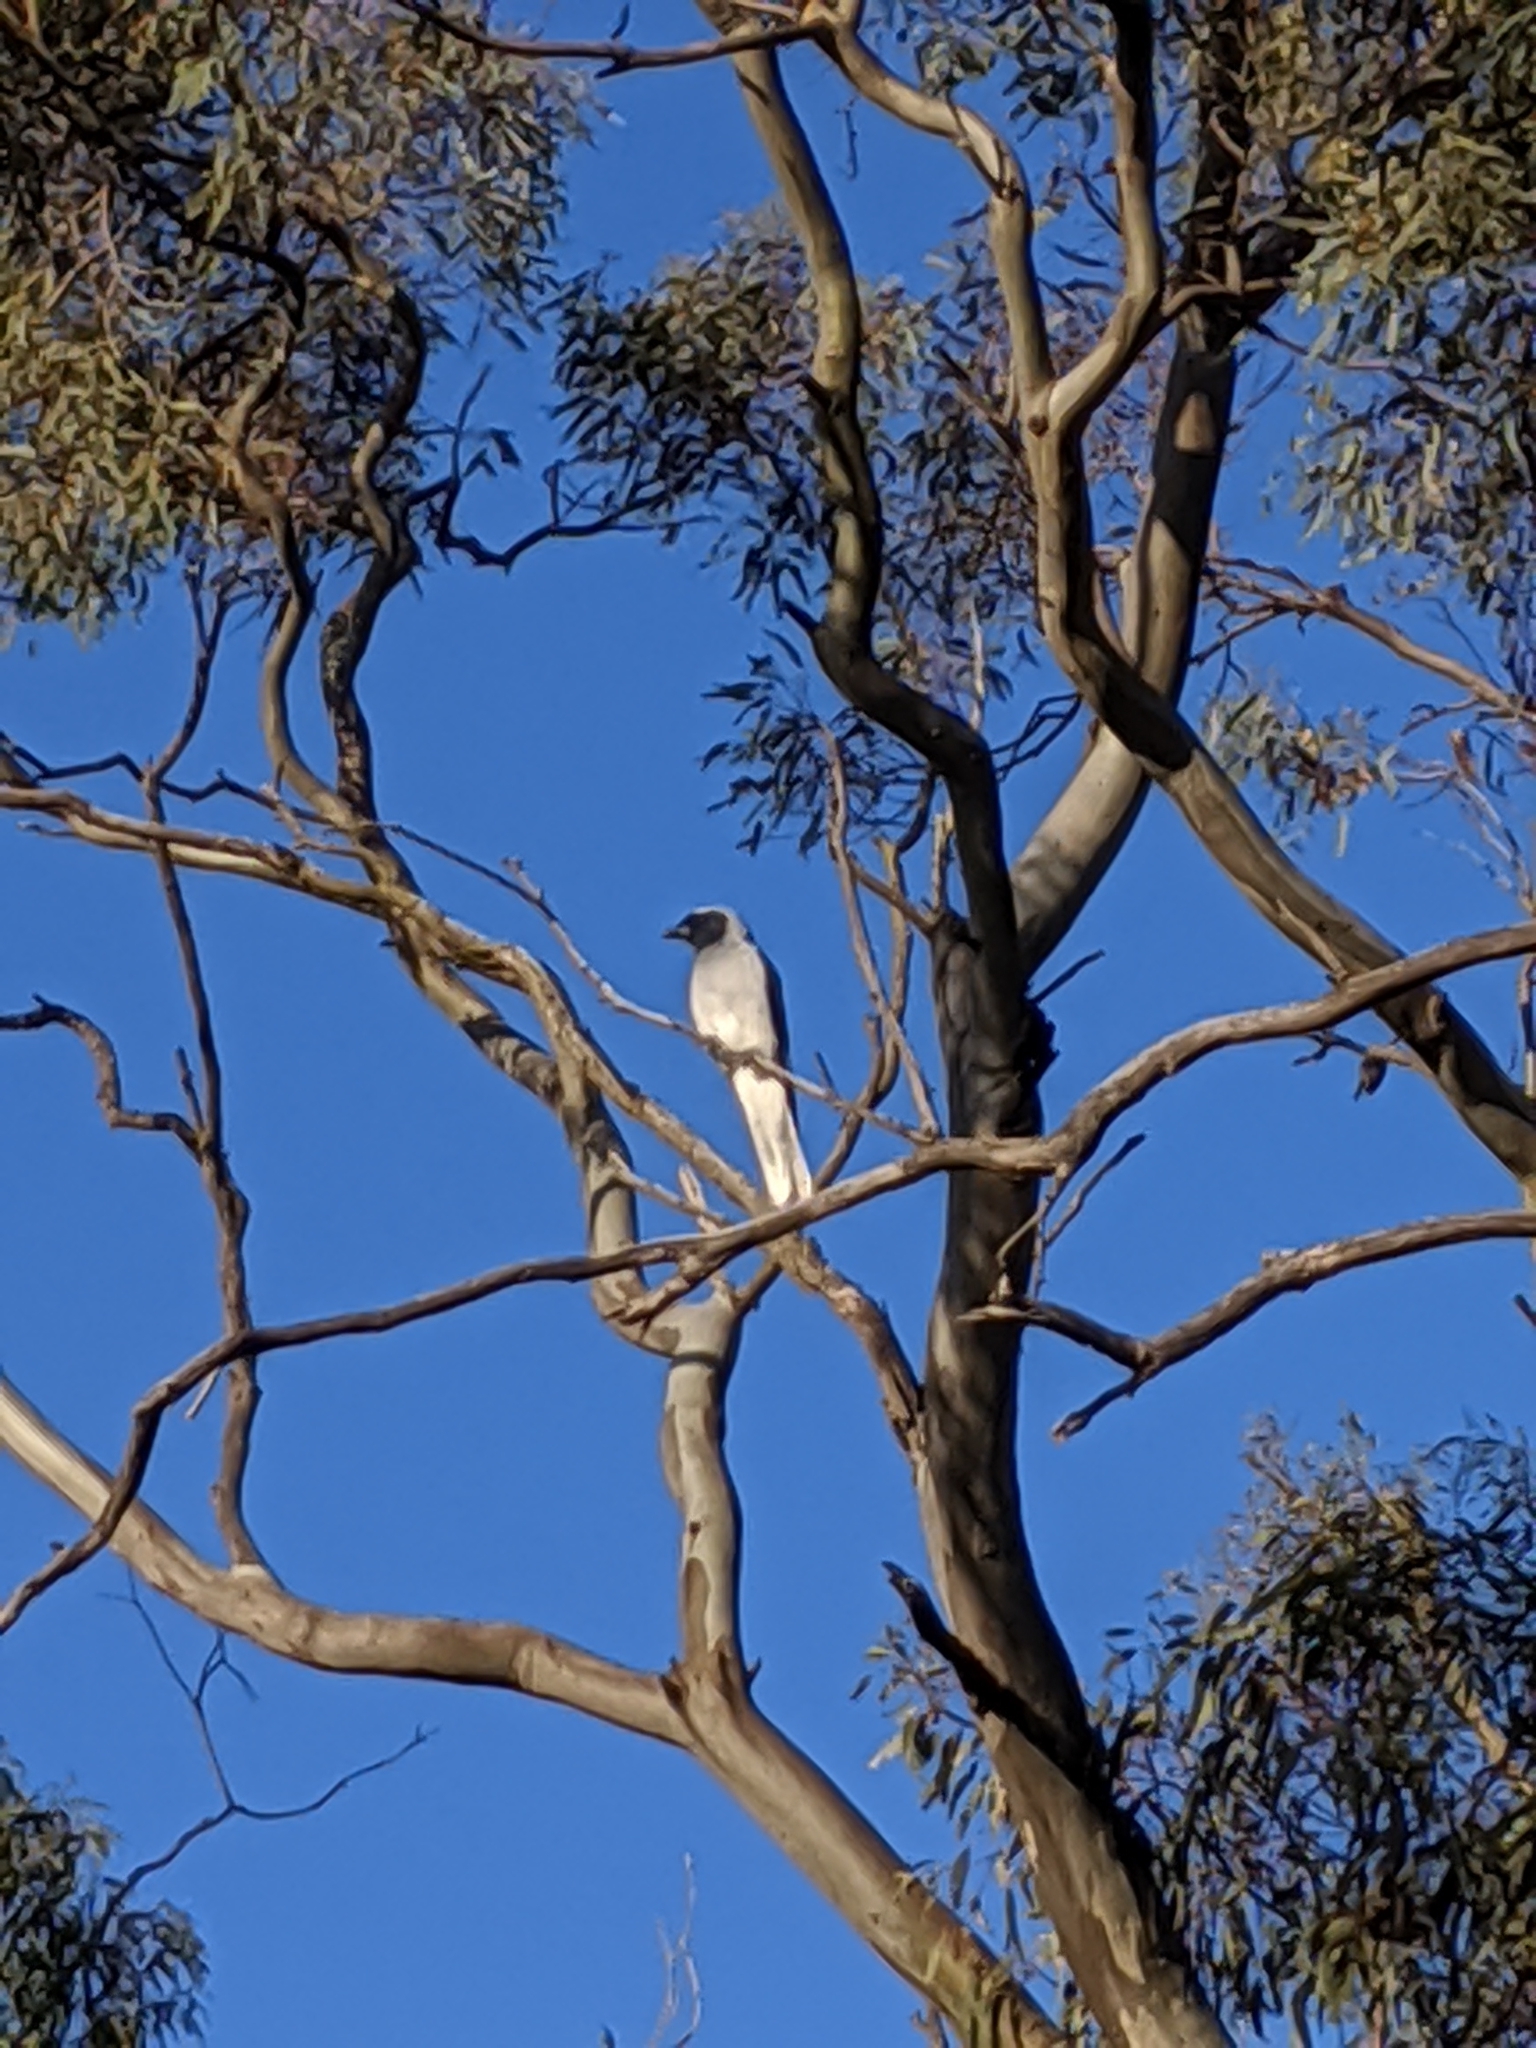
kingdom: Animalia
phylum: Chordata
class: Aves
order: Passeriformes
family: Campephagidae
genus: Coracina
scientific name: Coracina novaehollandiae
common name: Black-faced cuckooshrike
